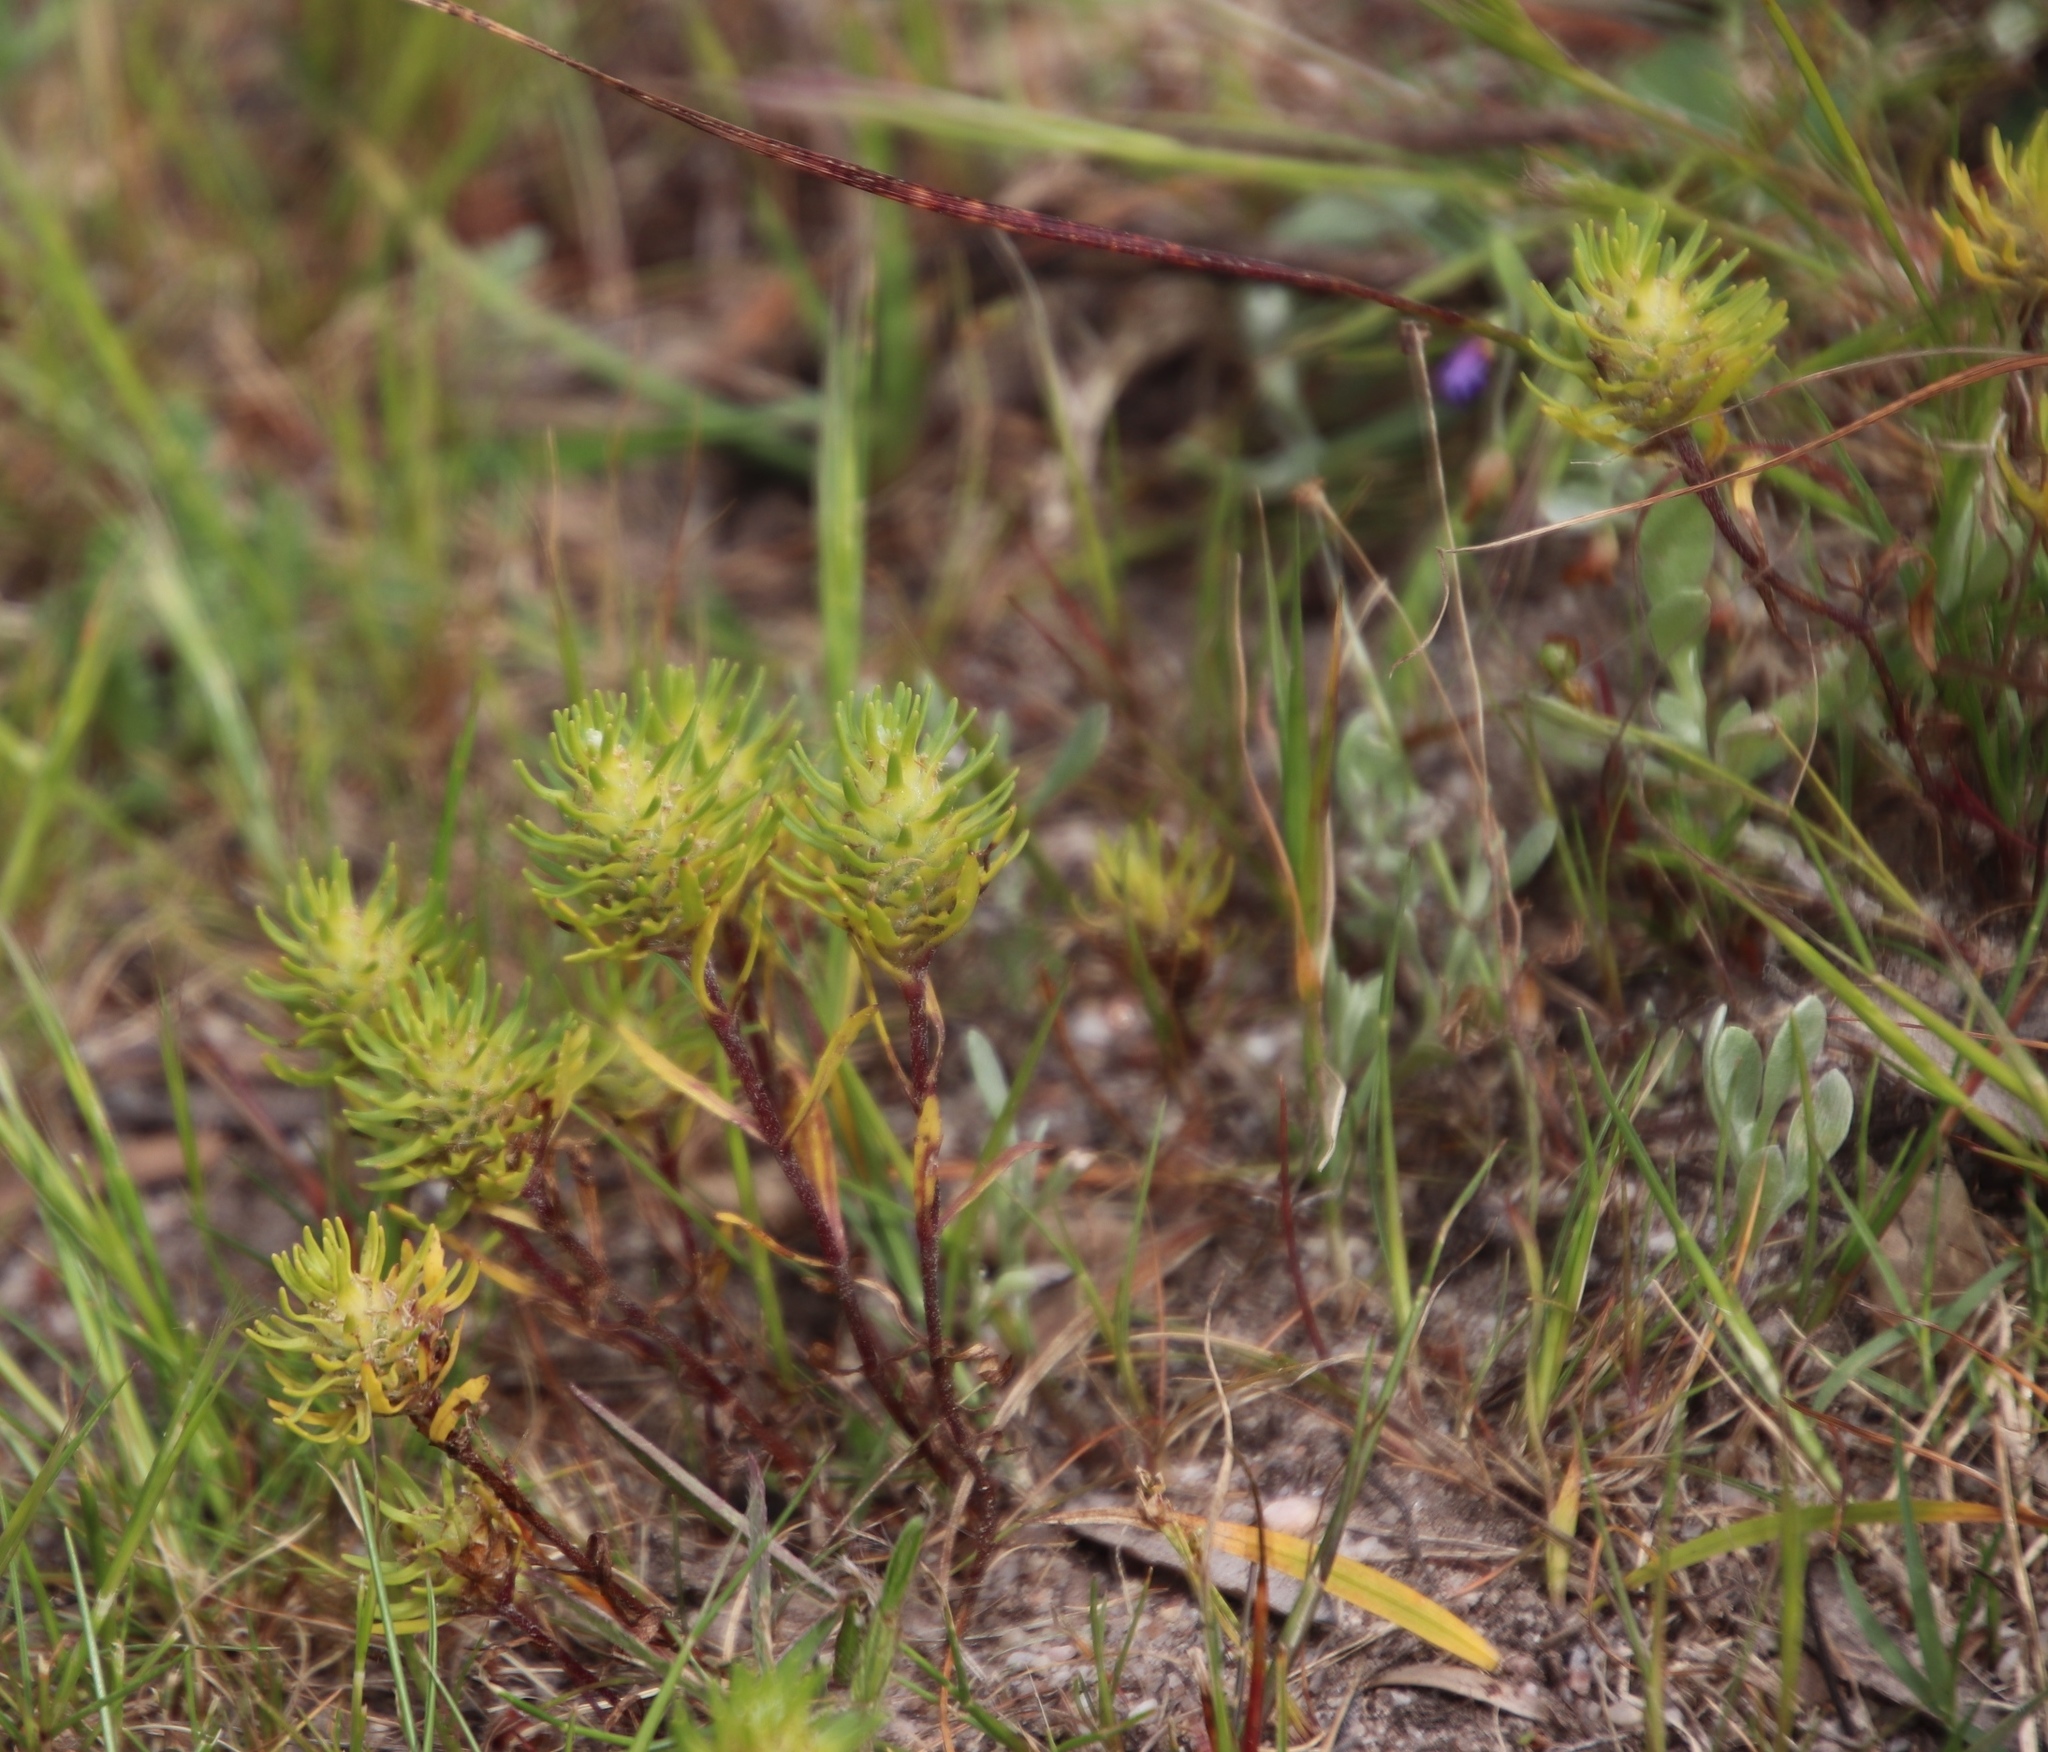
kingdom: Plantae
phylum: Tracheophyta
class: Magnoliopsida
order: Lamiales
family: Scrophulariaceae
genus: Dischisma
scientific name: Dischisma capitatum
